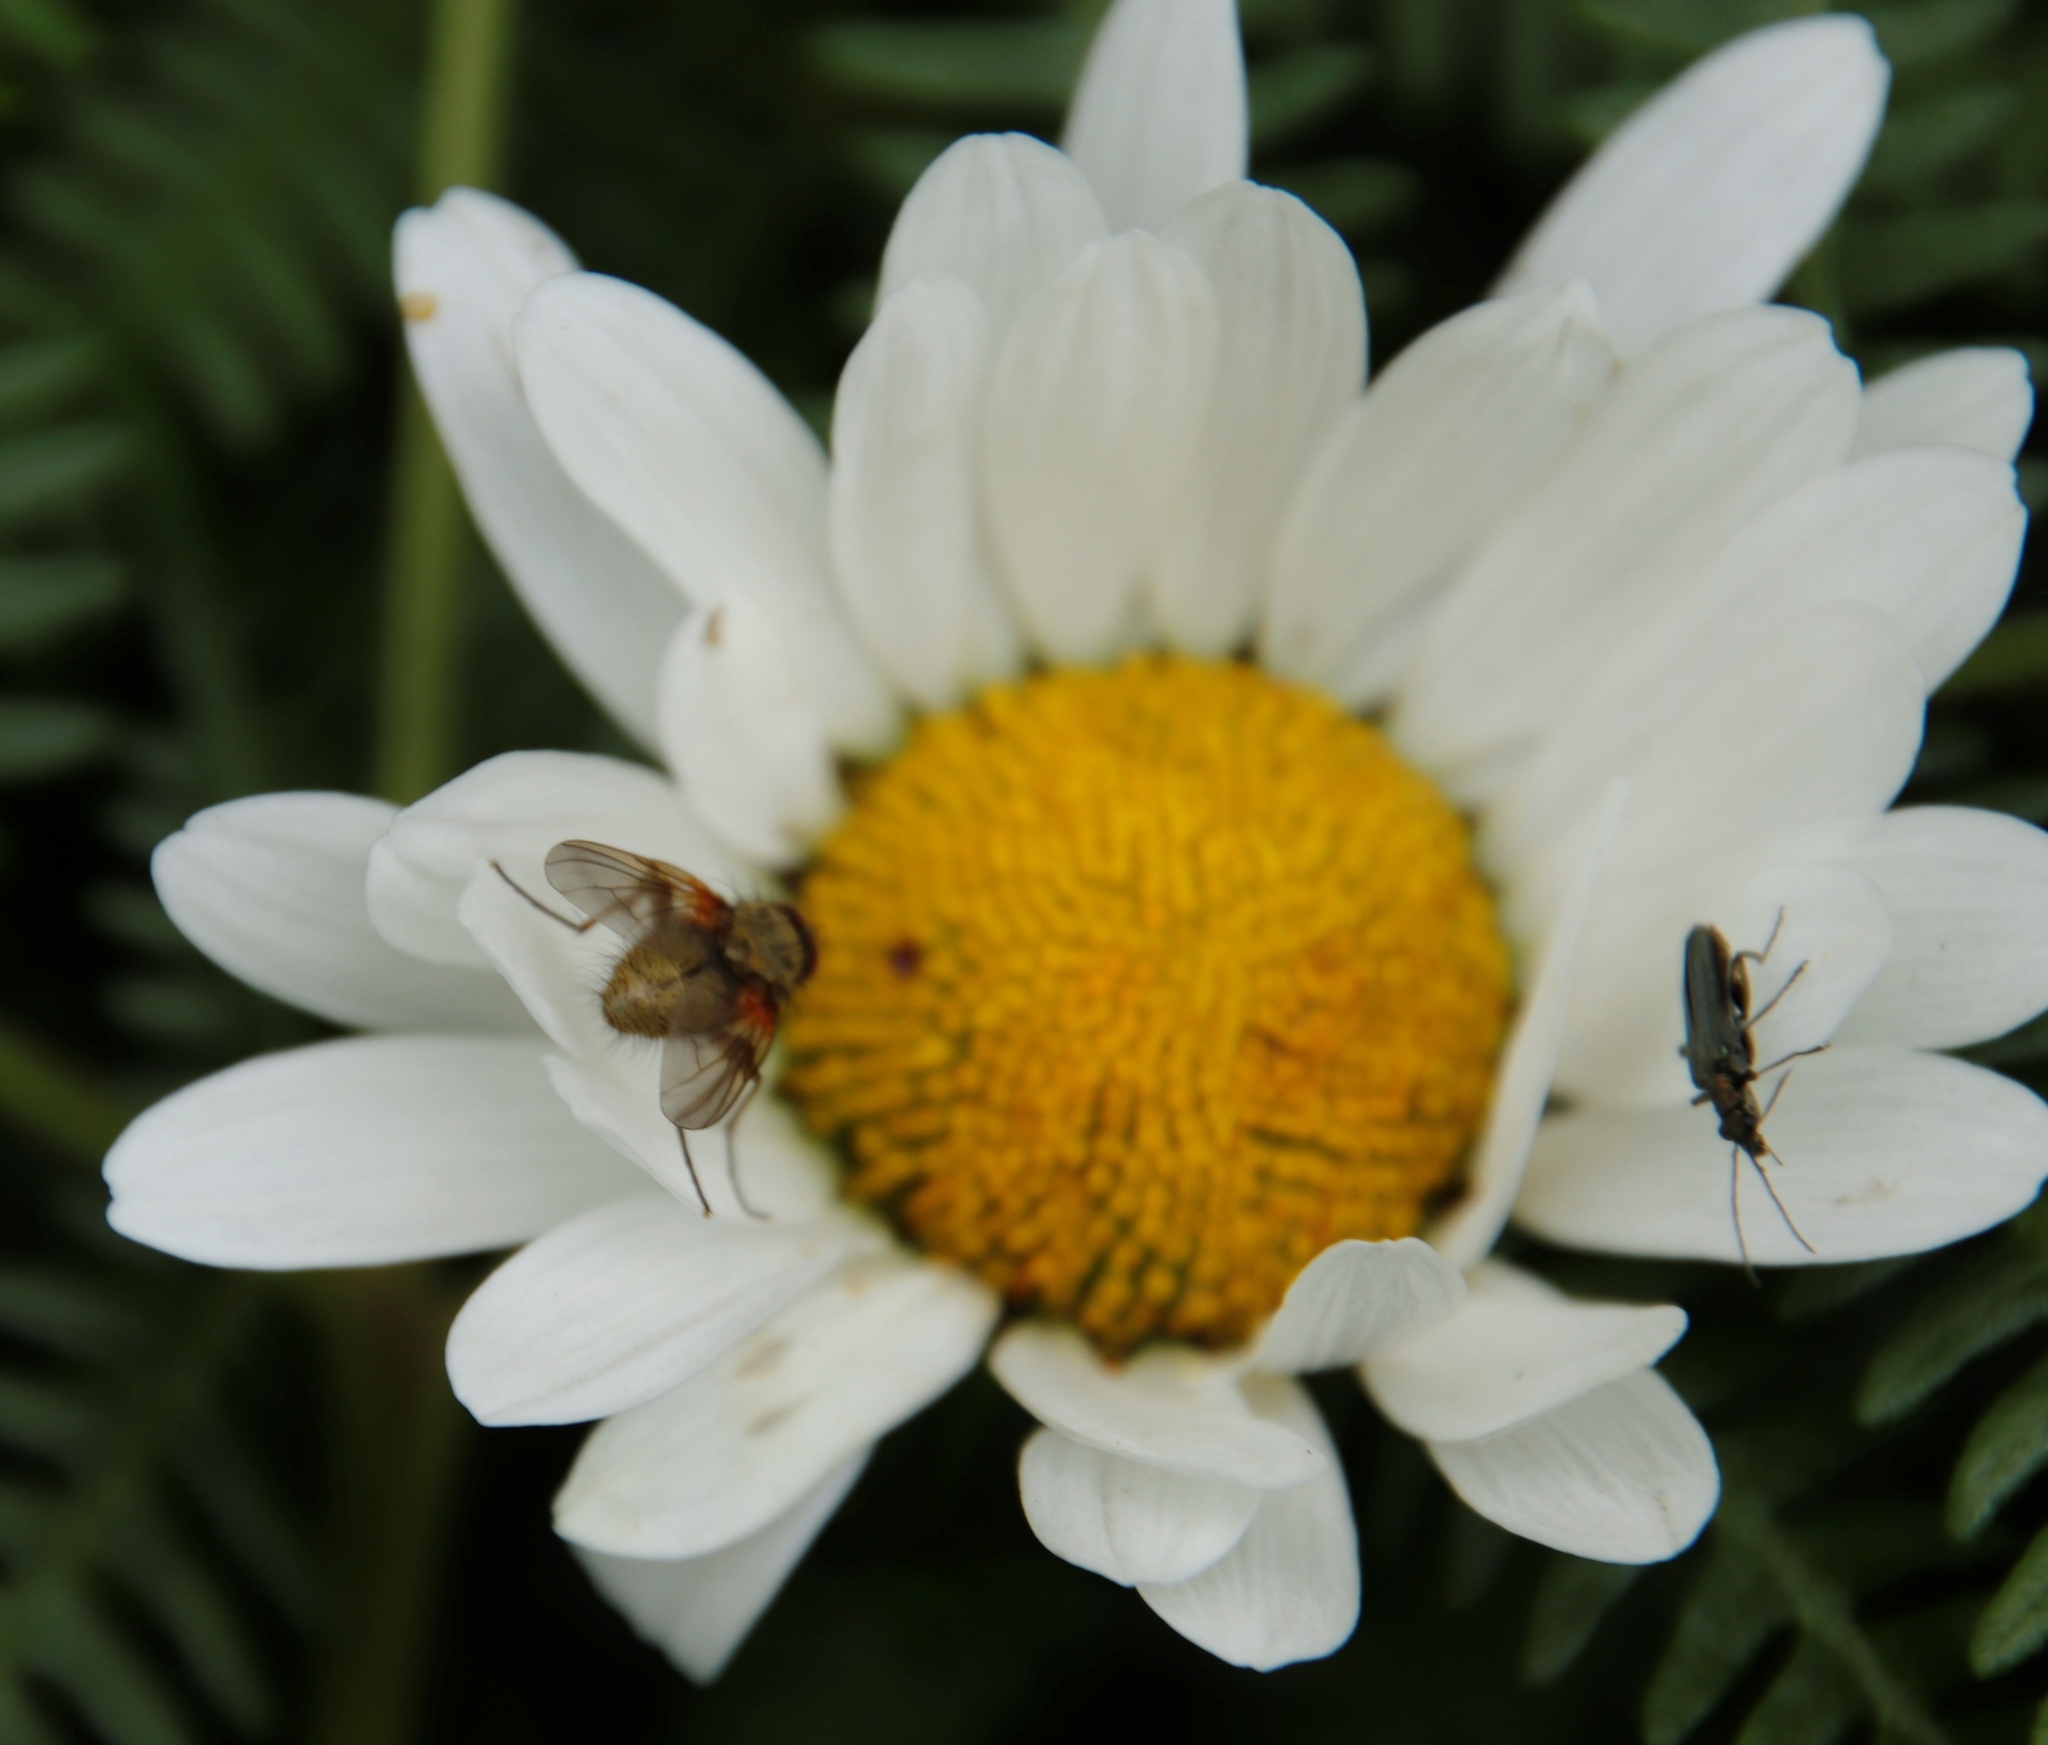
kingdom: Plantae
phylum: Tracheophyta
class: Magnoliopsida
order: Asterales
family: Asteraceae
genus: Leucanthemum
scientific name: Leucanthemum vulgare
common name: Oxeye daisy
